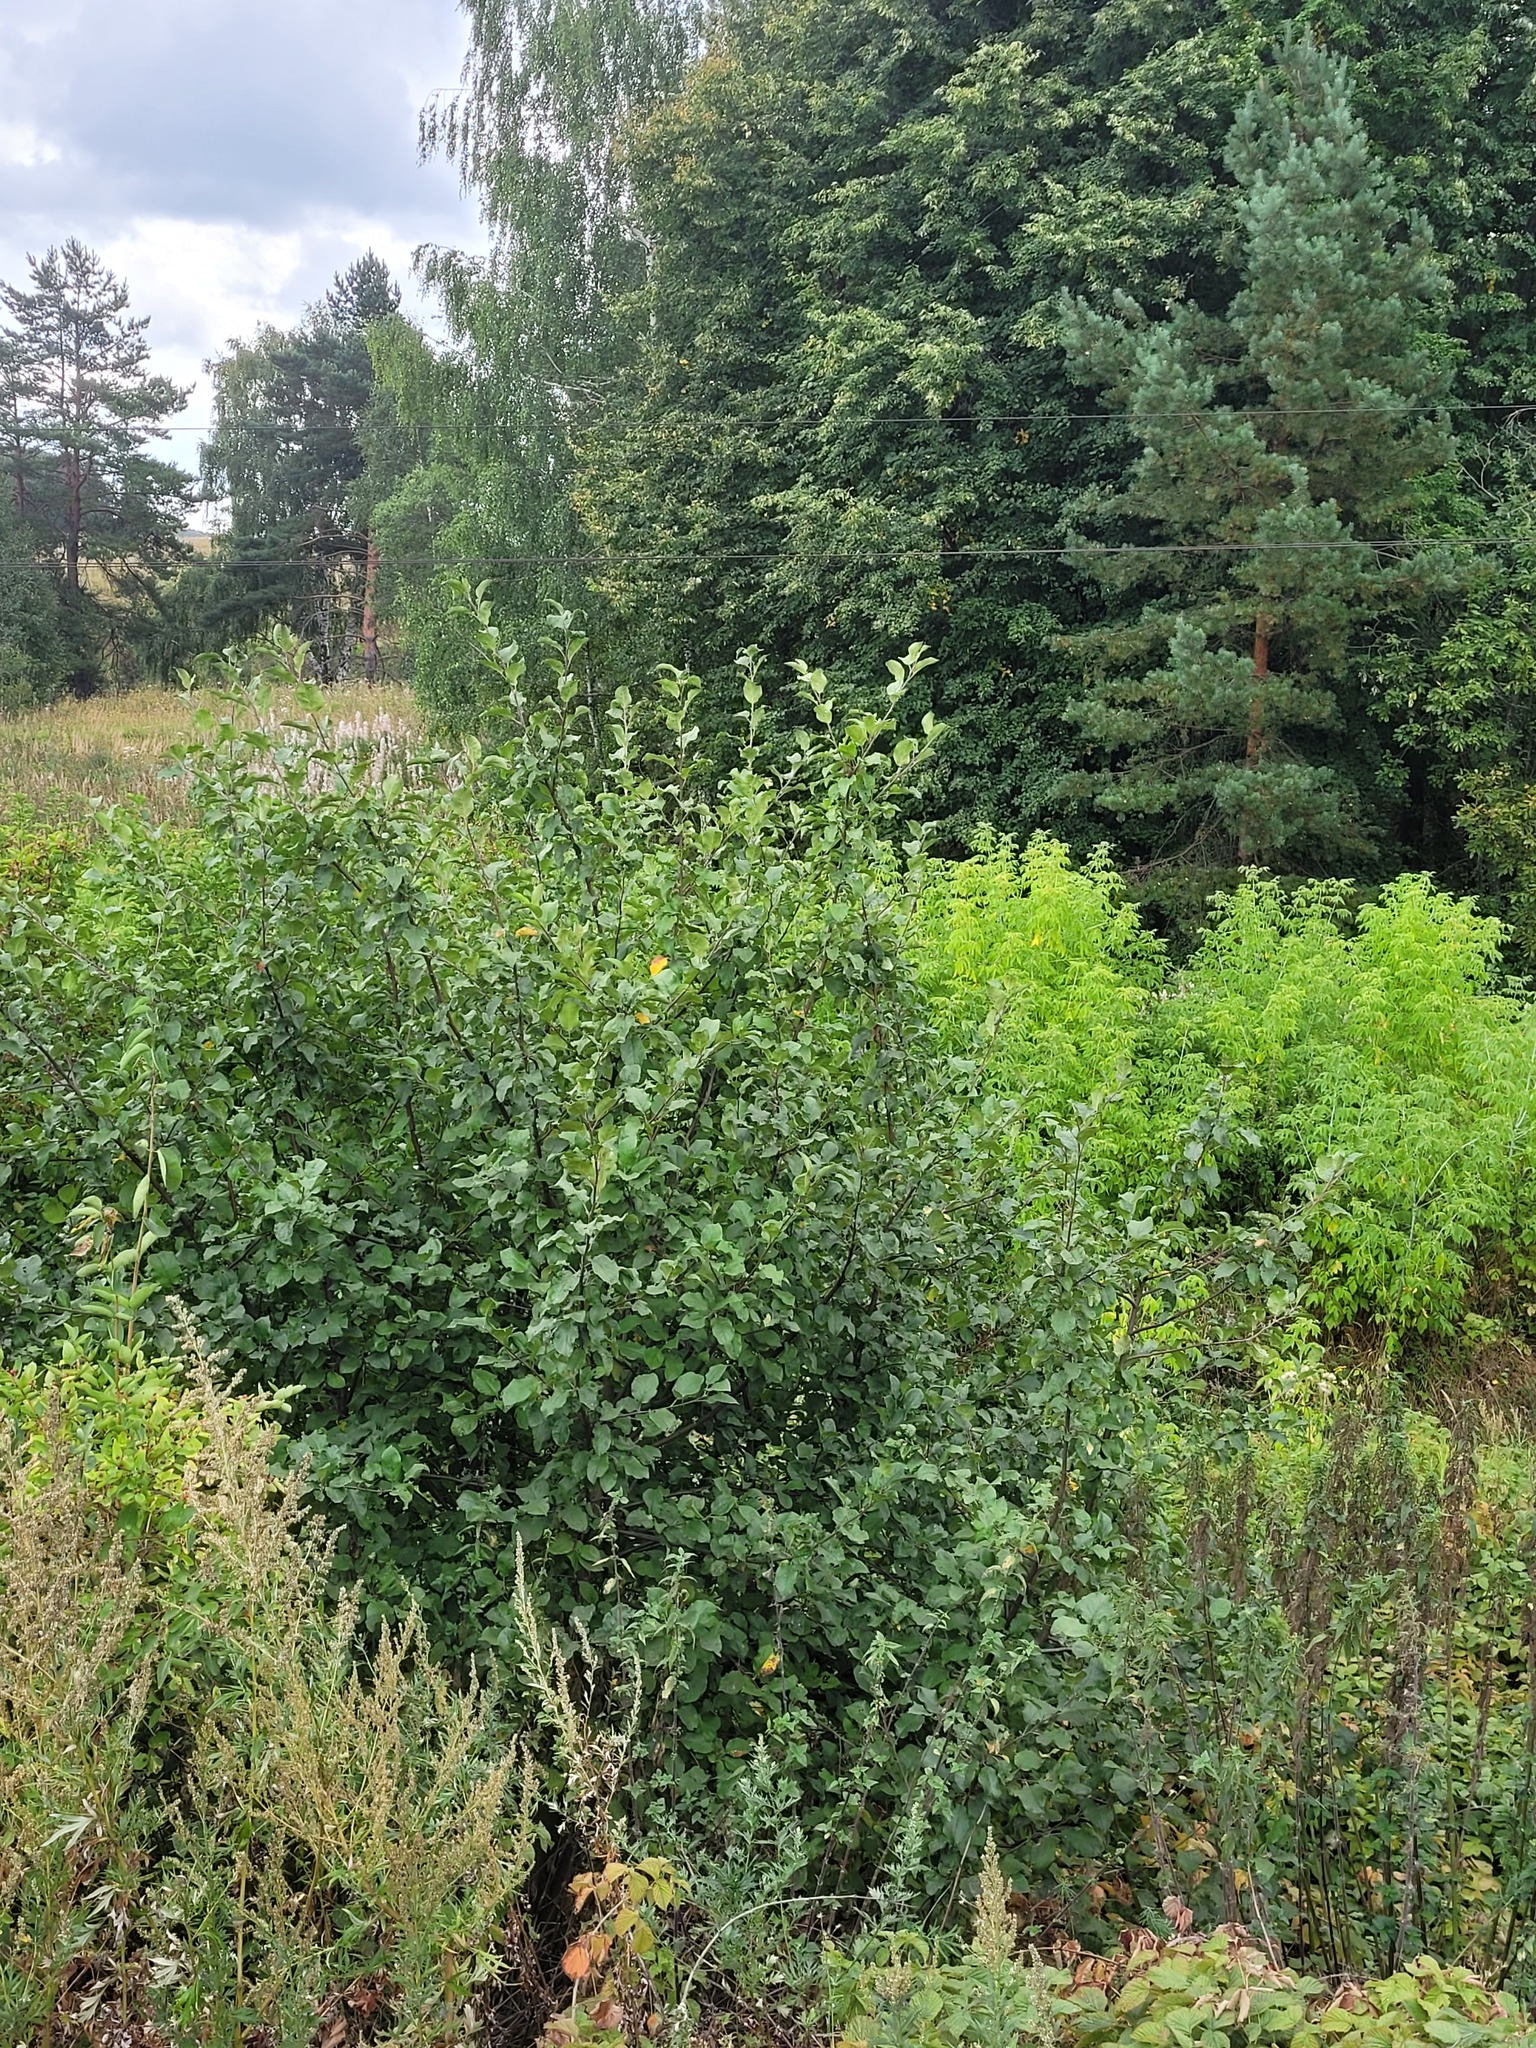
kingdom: Plantae
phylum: Tracheophyta
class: Magnoliopsida
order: Rosales
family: Rosaceae
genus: Malus
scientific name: Malus domestica
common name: Apple
